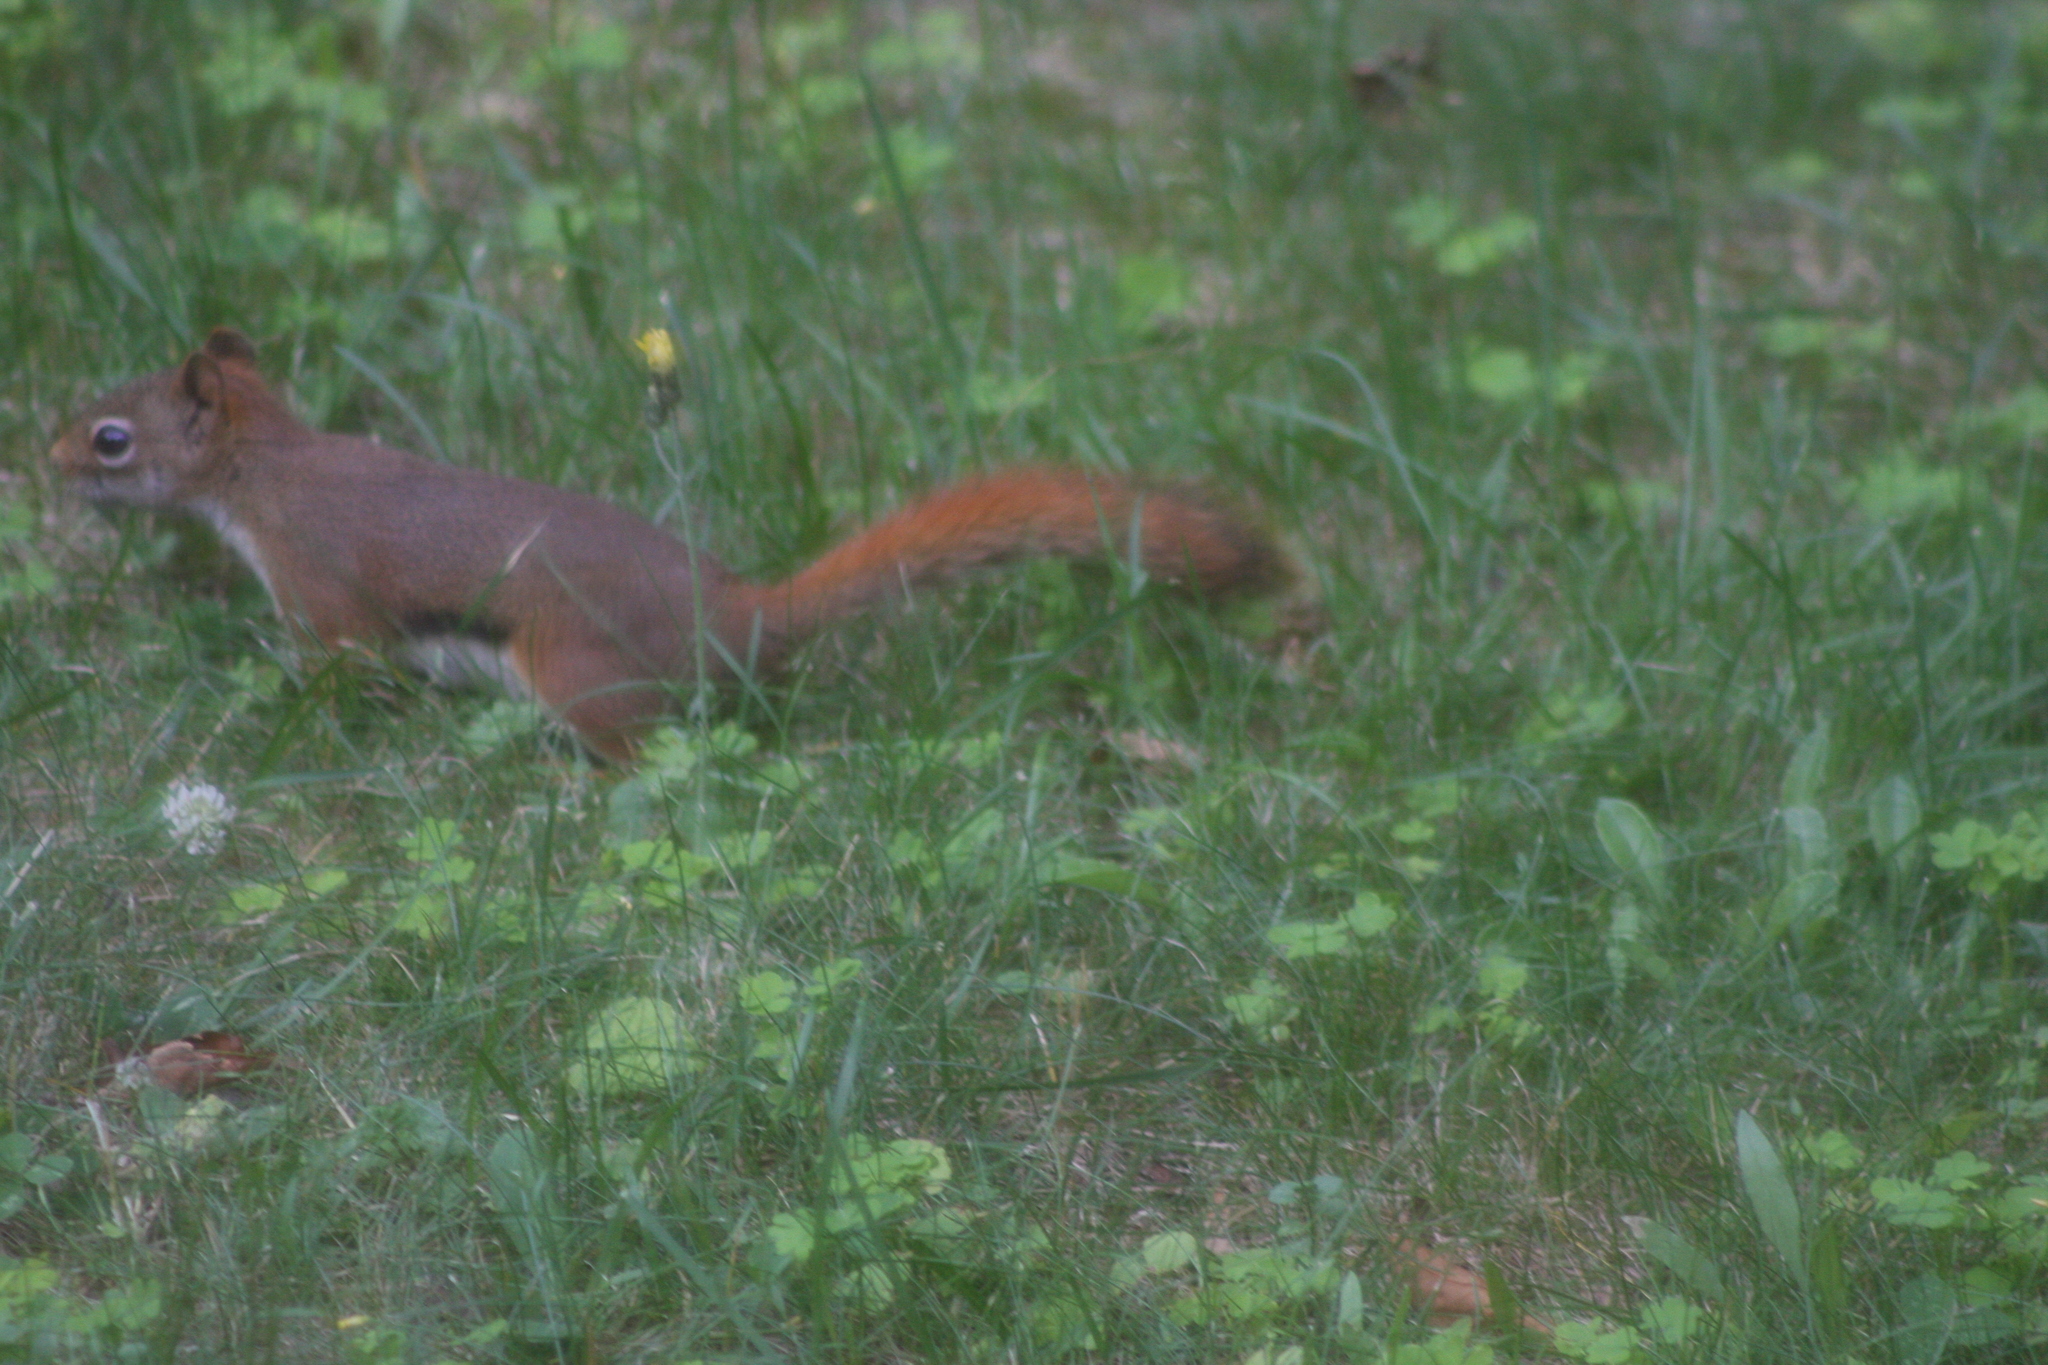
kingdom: Animalia
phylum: Chordata
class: Mammalia
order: Rodentia
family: Sciuridae
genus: Tamiasciurus
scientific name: Tamiasciurus hudsonicus
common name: Red squirrel
